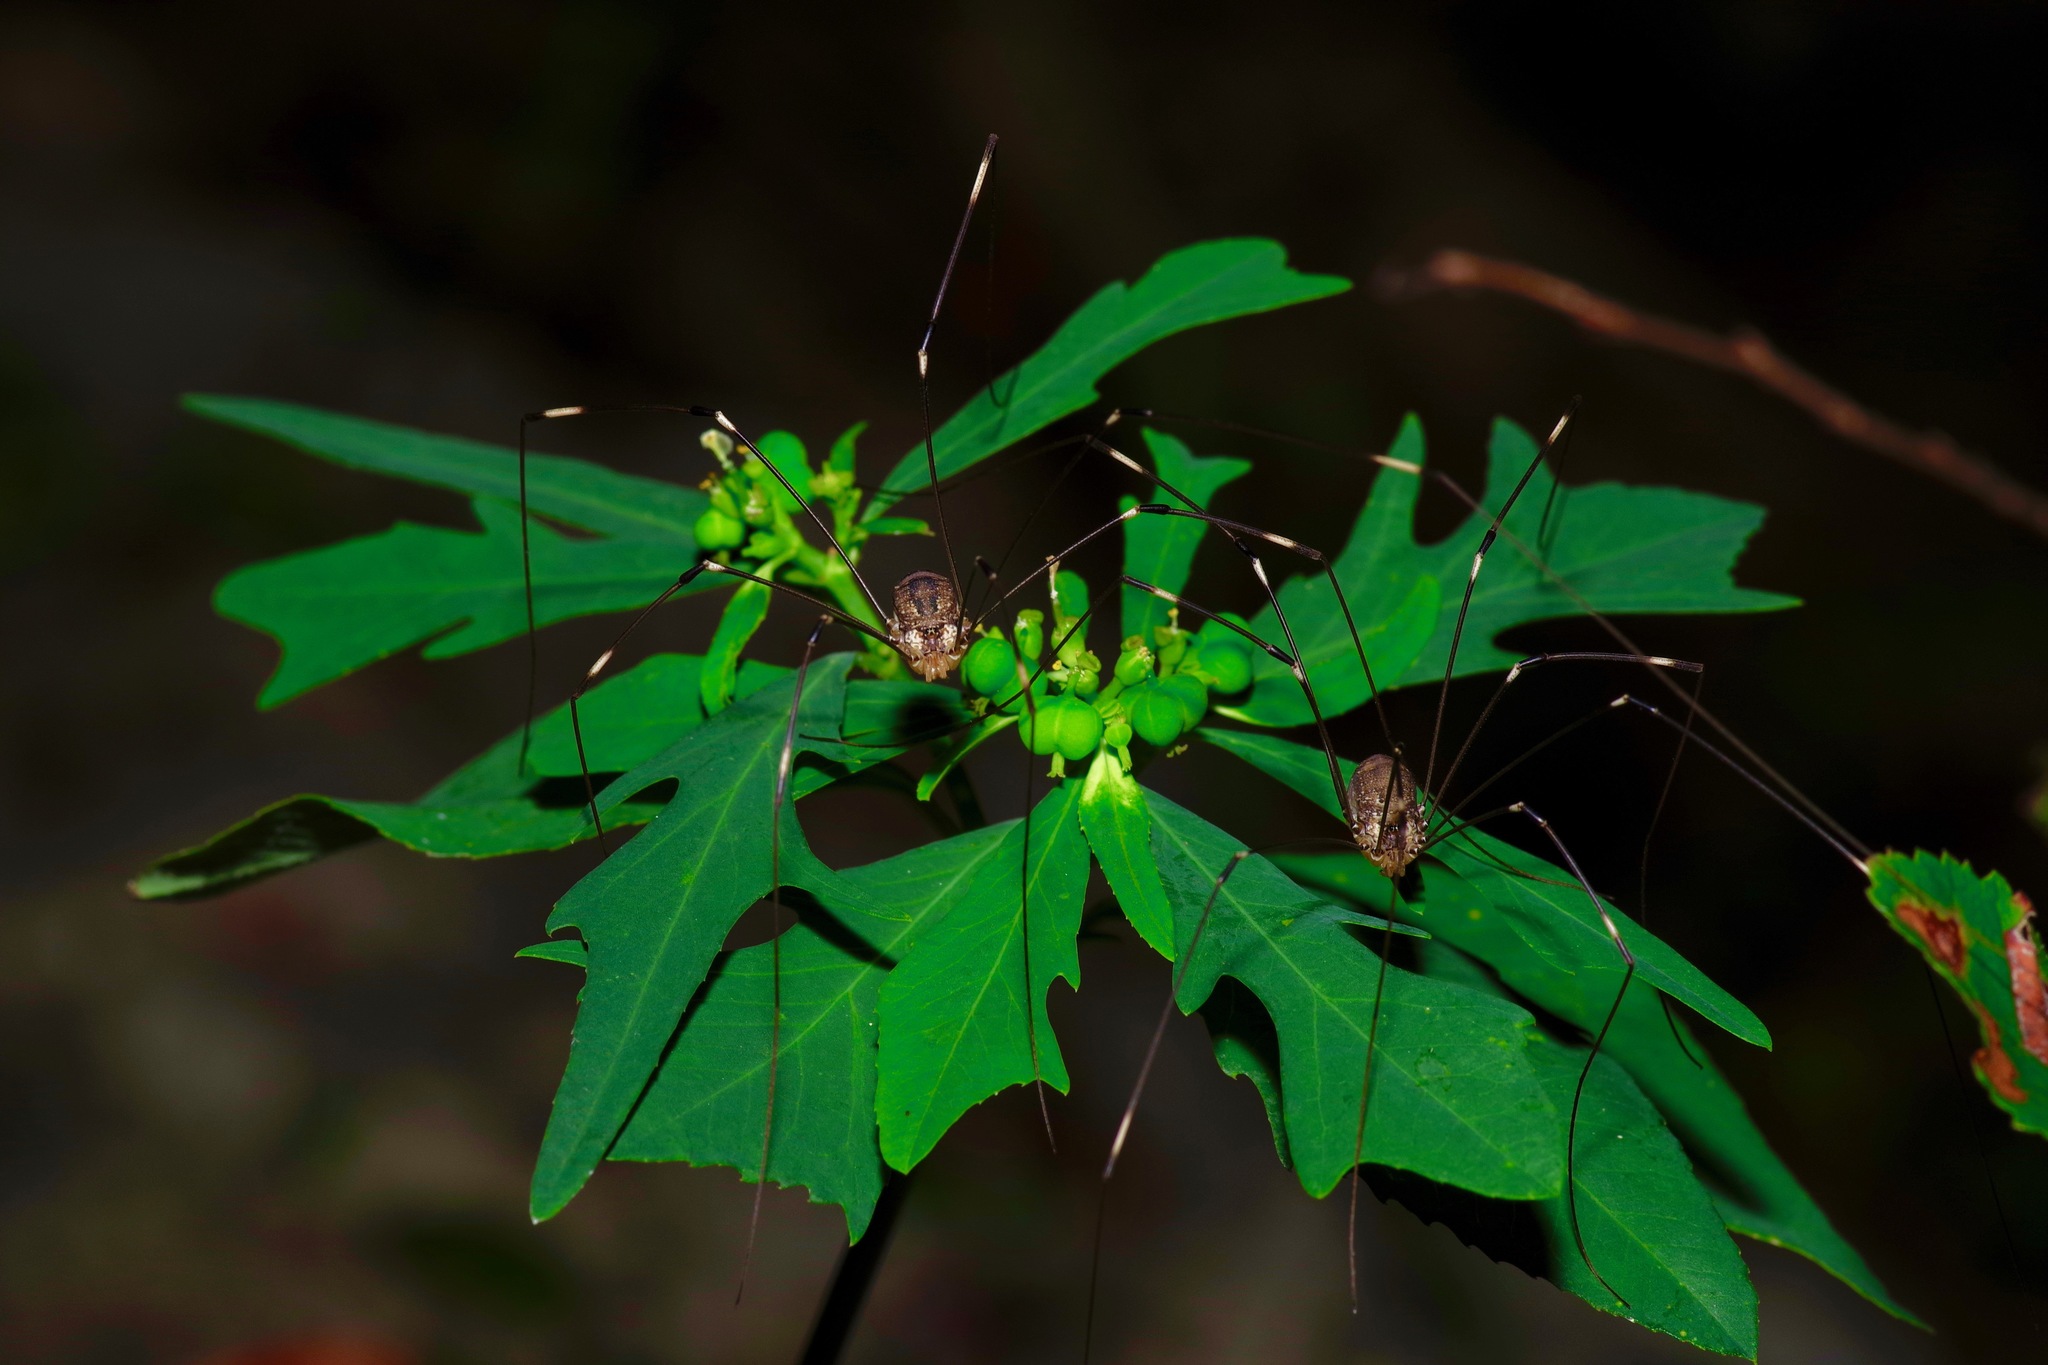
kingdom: Plantae
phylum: Tracheophyta
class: Magnoliopsida
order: Malpighiales
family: Euphorbiaceae
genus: Euphorbia
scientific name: Euphorbia heterophylla
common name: Mexican fireplant
